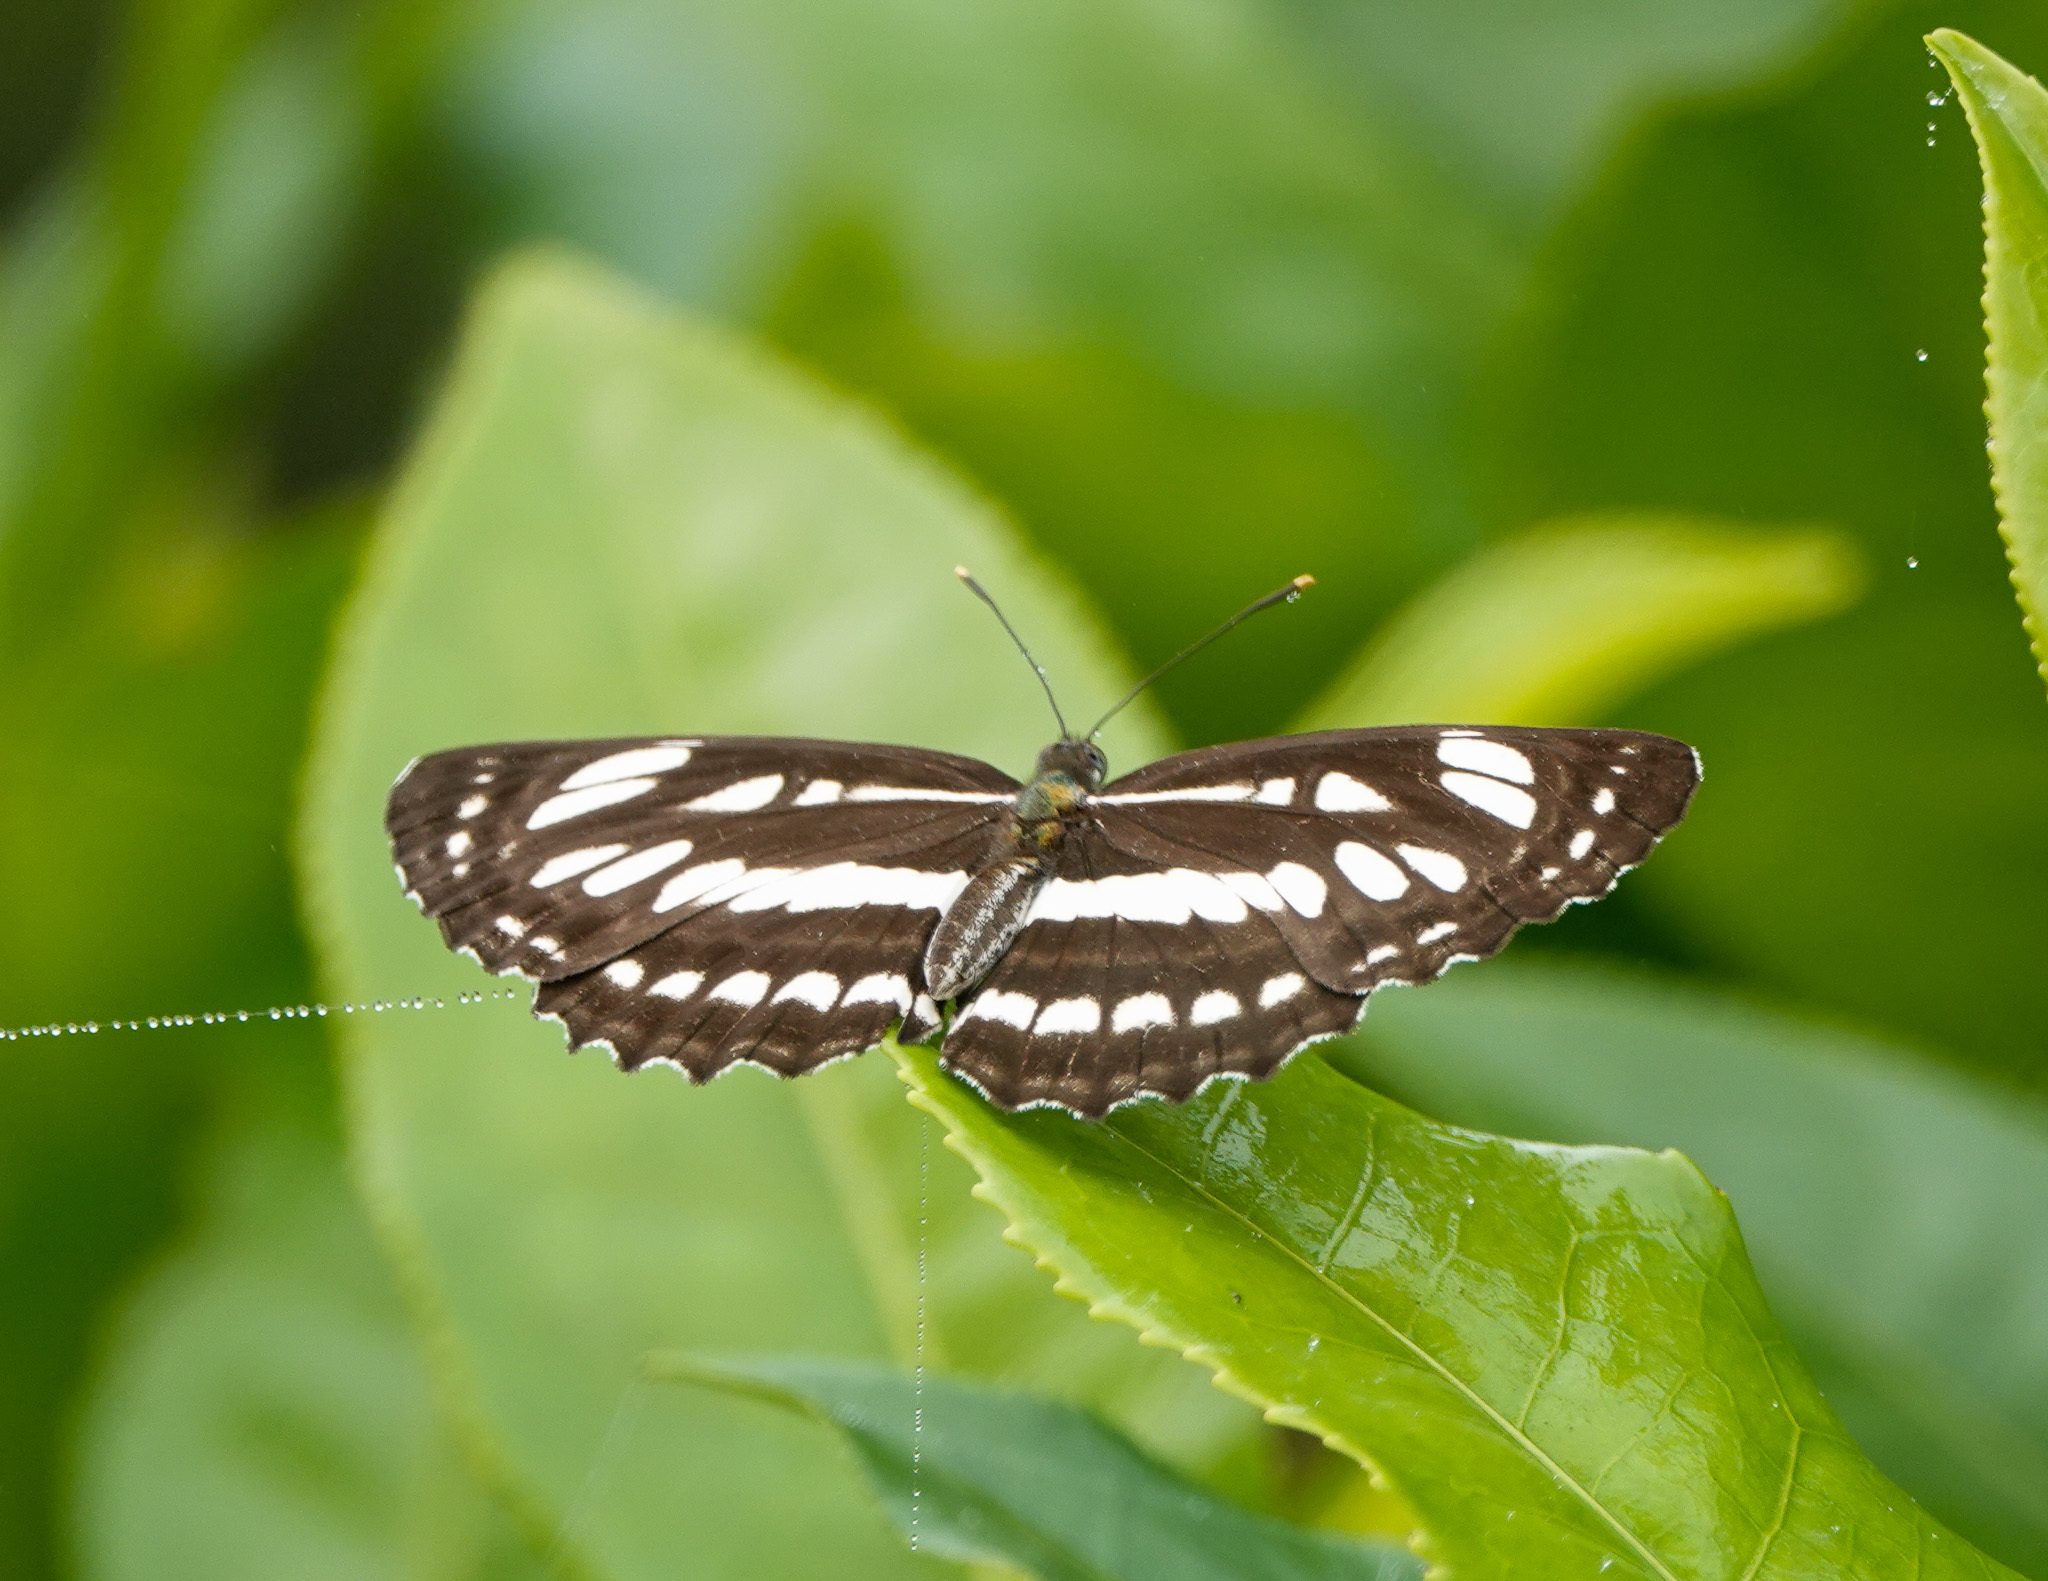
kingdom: Animalia
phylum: Arthropoda
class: Insecta
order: Lepidoptera
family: Nymphalidae
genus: Neptis
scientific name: Neptis hylas
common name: Common sailer
